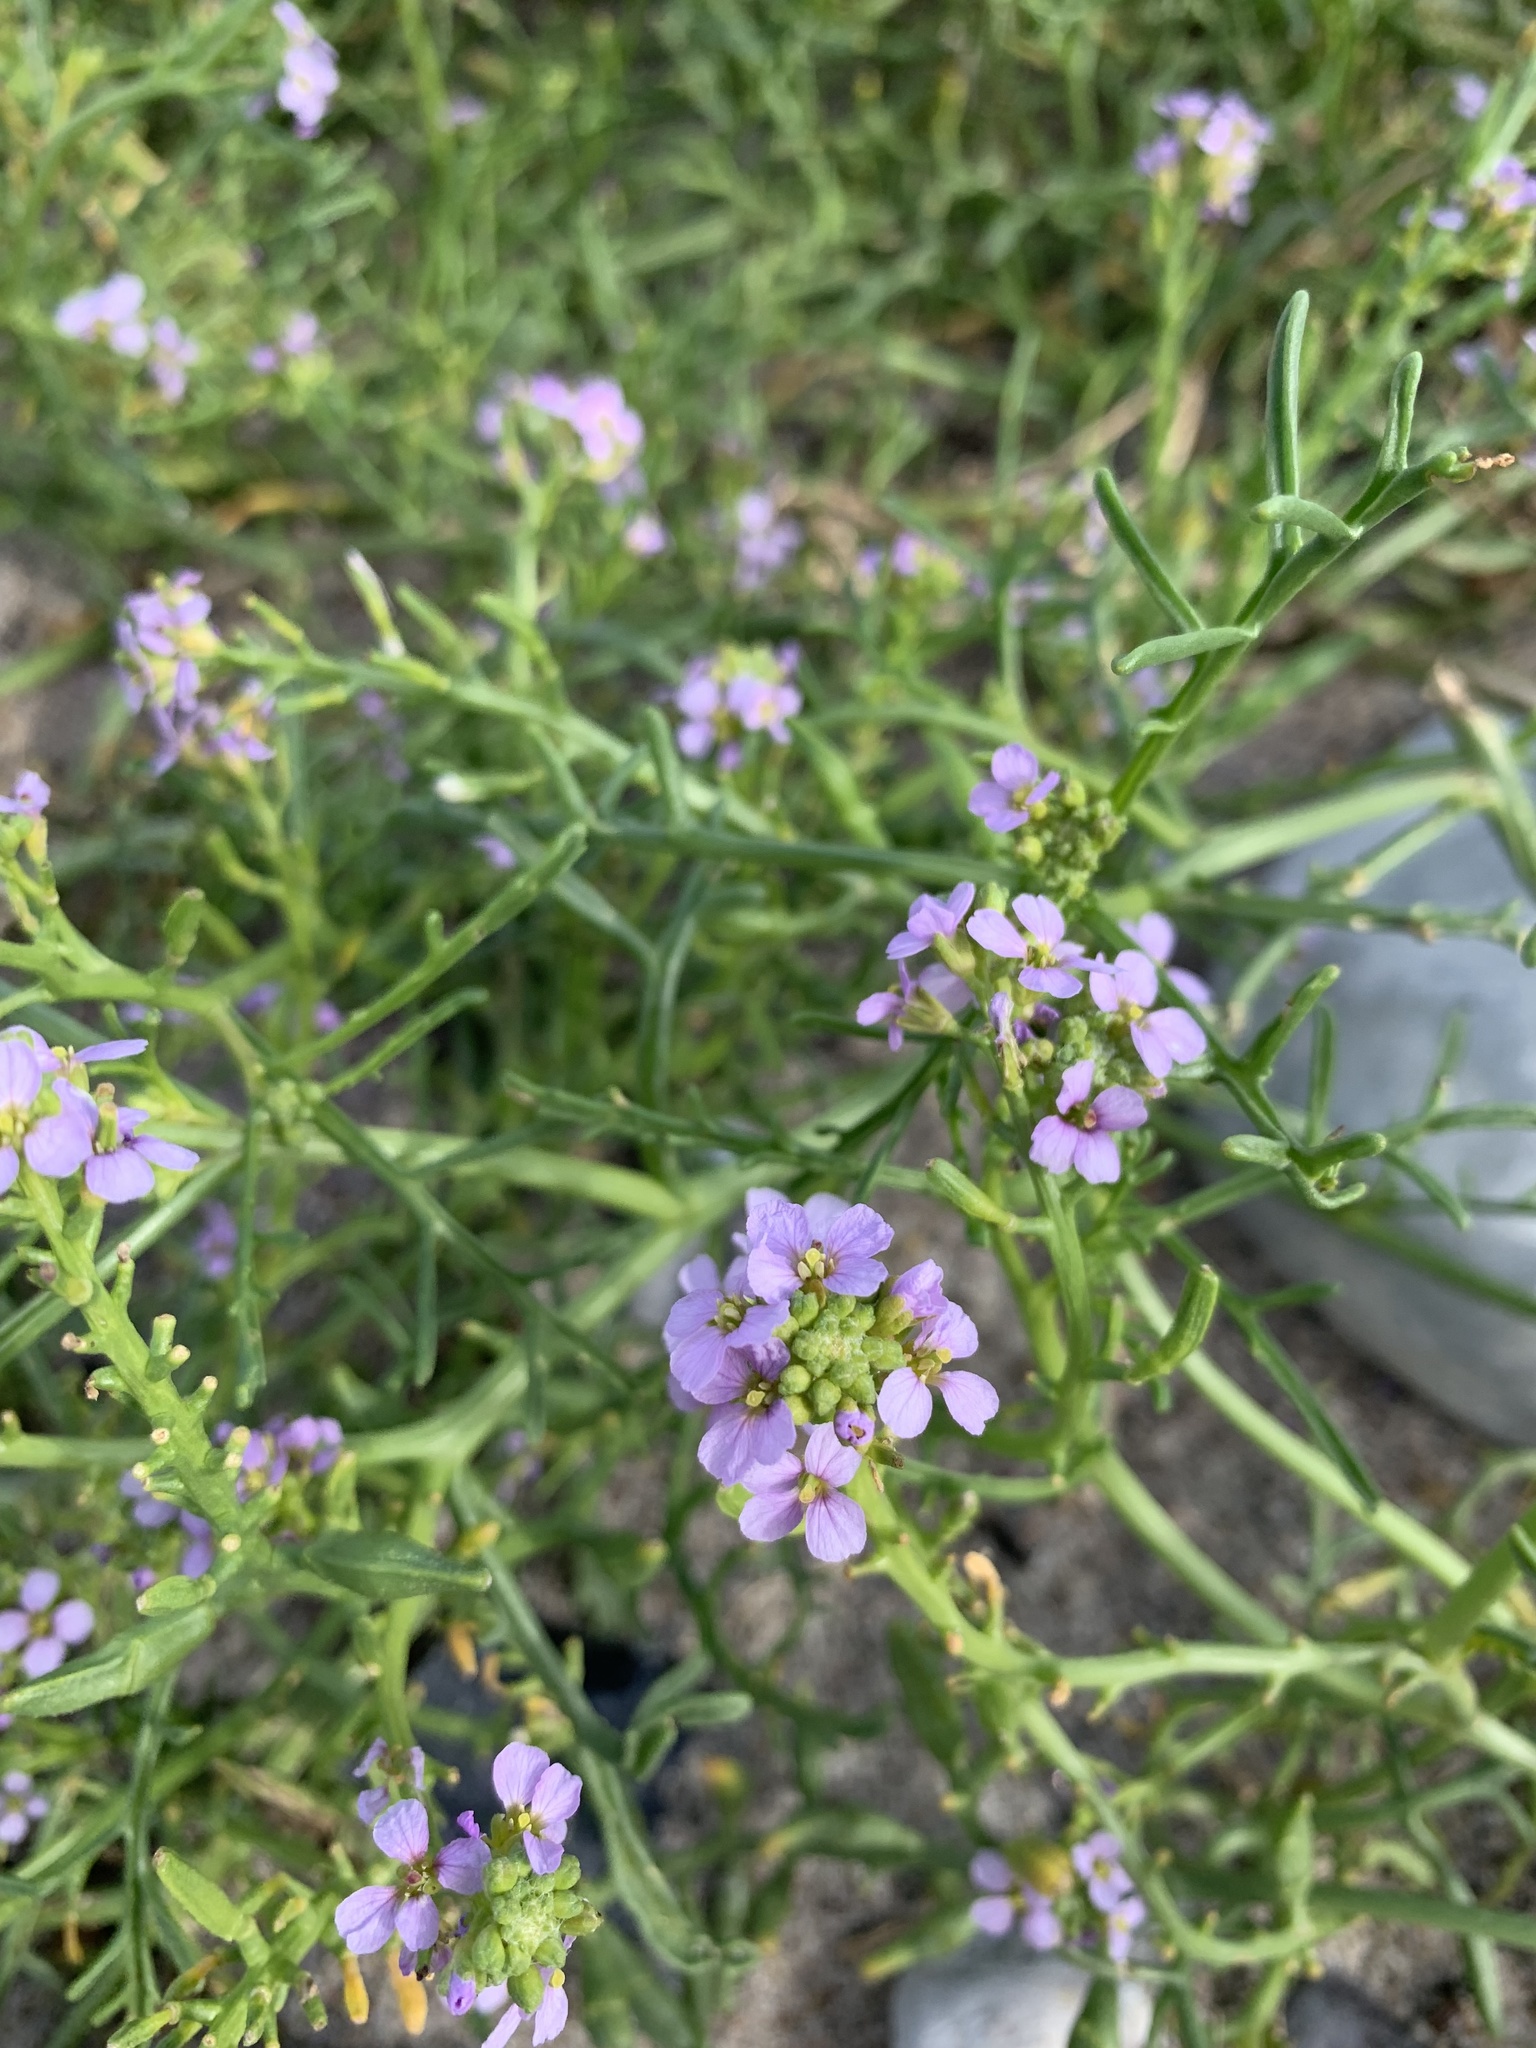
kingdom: Plantae
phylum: Tracheophyta
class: Magnoliopsida
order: Brassicales
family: Brassicaceae
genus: Cakile
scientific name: Cakile maritima
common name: Sea rocket
